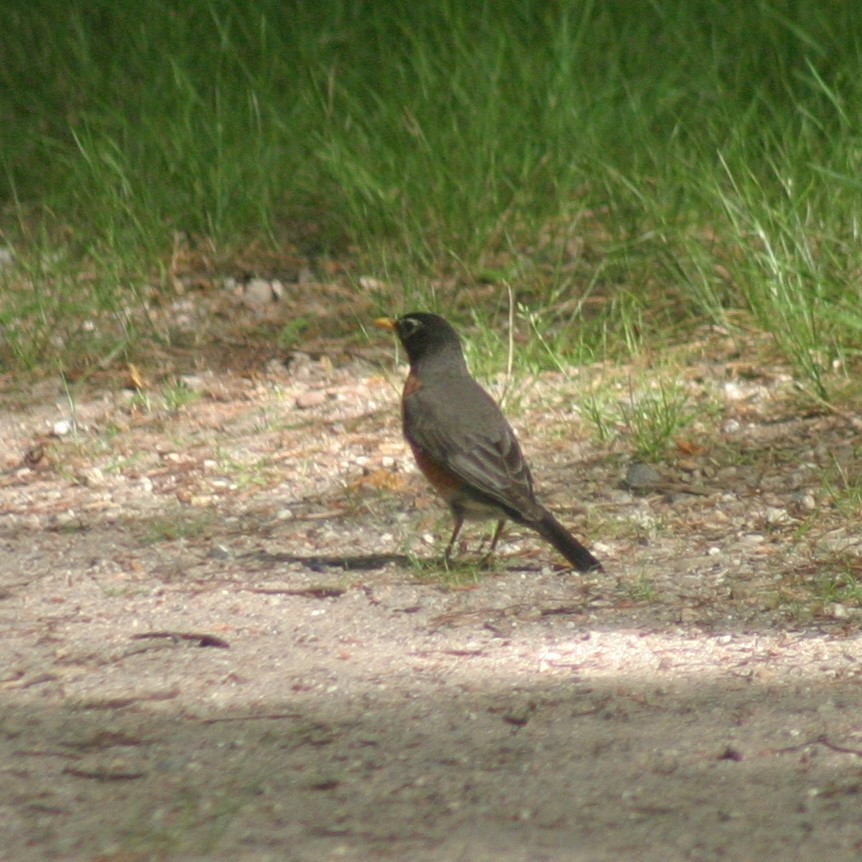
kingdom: Animalia
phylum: Chordata
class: Aves
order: Passeriformes
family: Turdidae
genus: Turdus
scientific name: Turdus migratorius
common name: American robin
